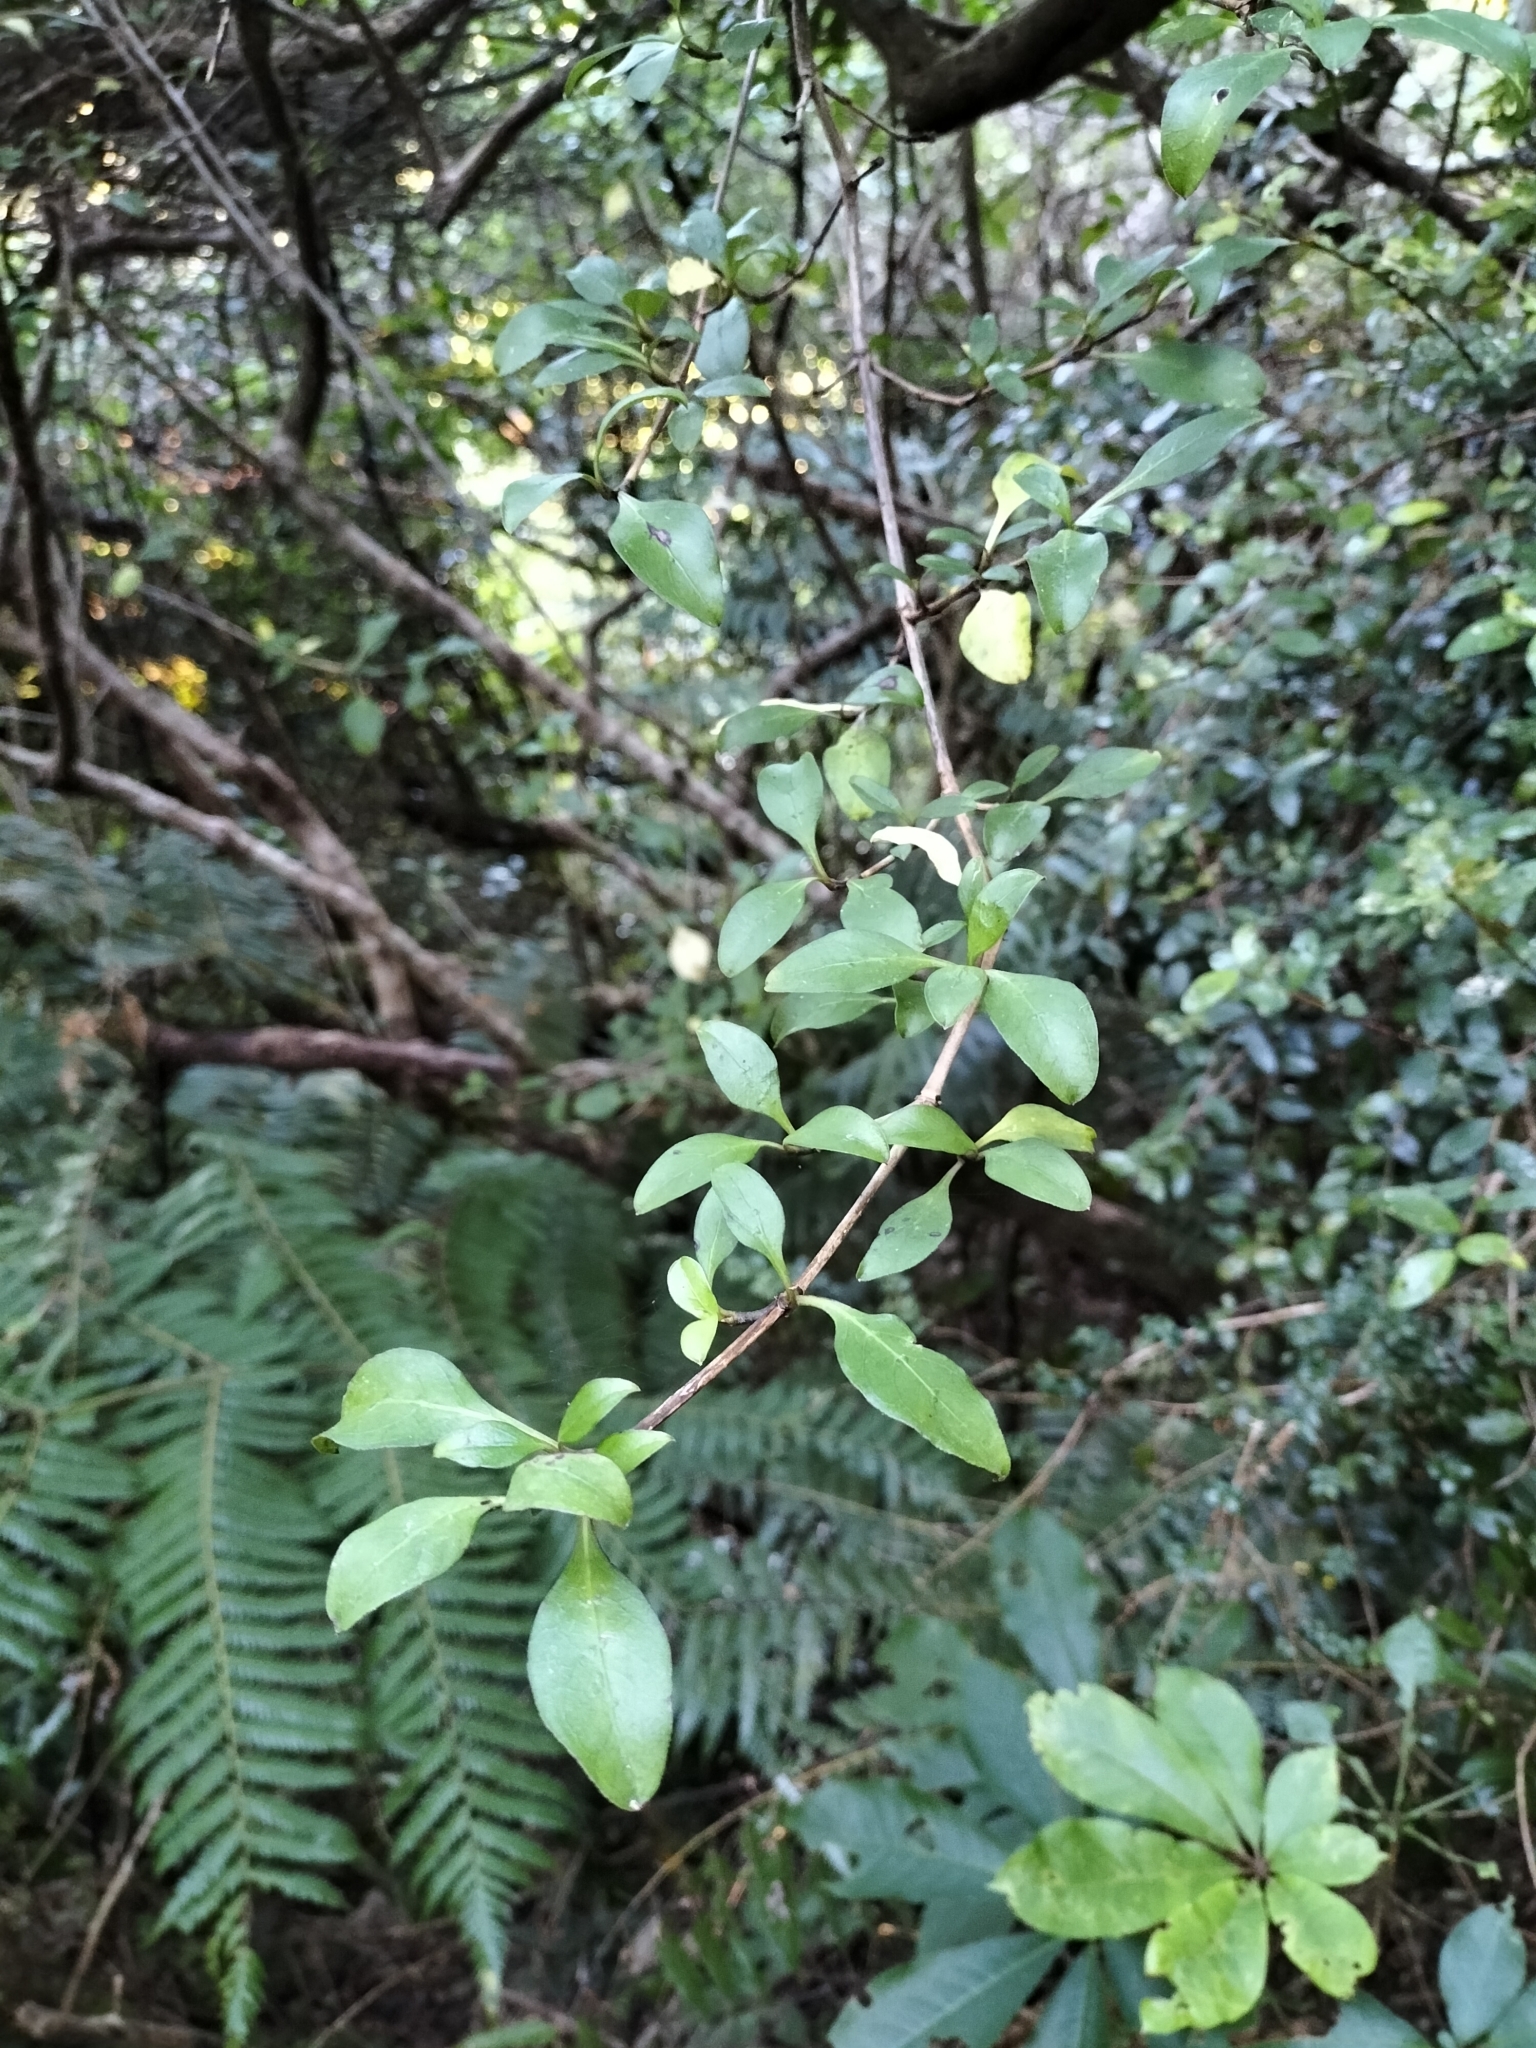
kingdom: Plantae
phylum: Tracheophyta
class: Magnoliopsida
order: Gentianales
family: Rubiaceae
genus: Coprosma
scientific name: Coprosma foetidissima
